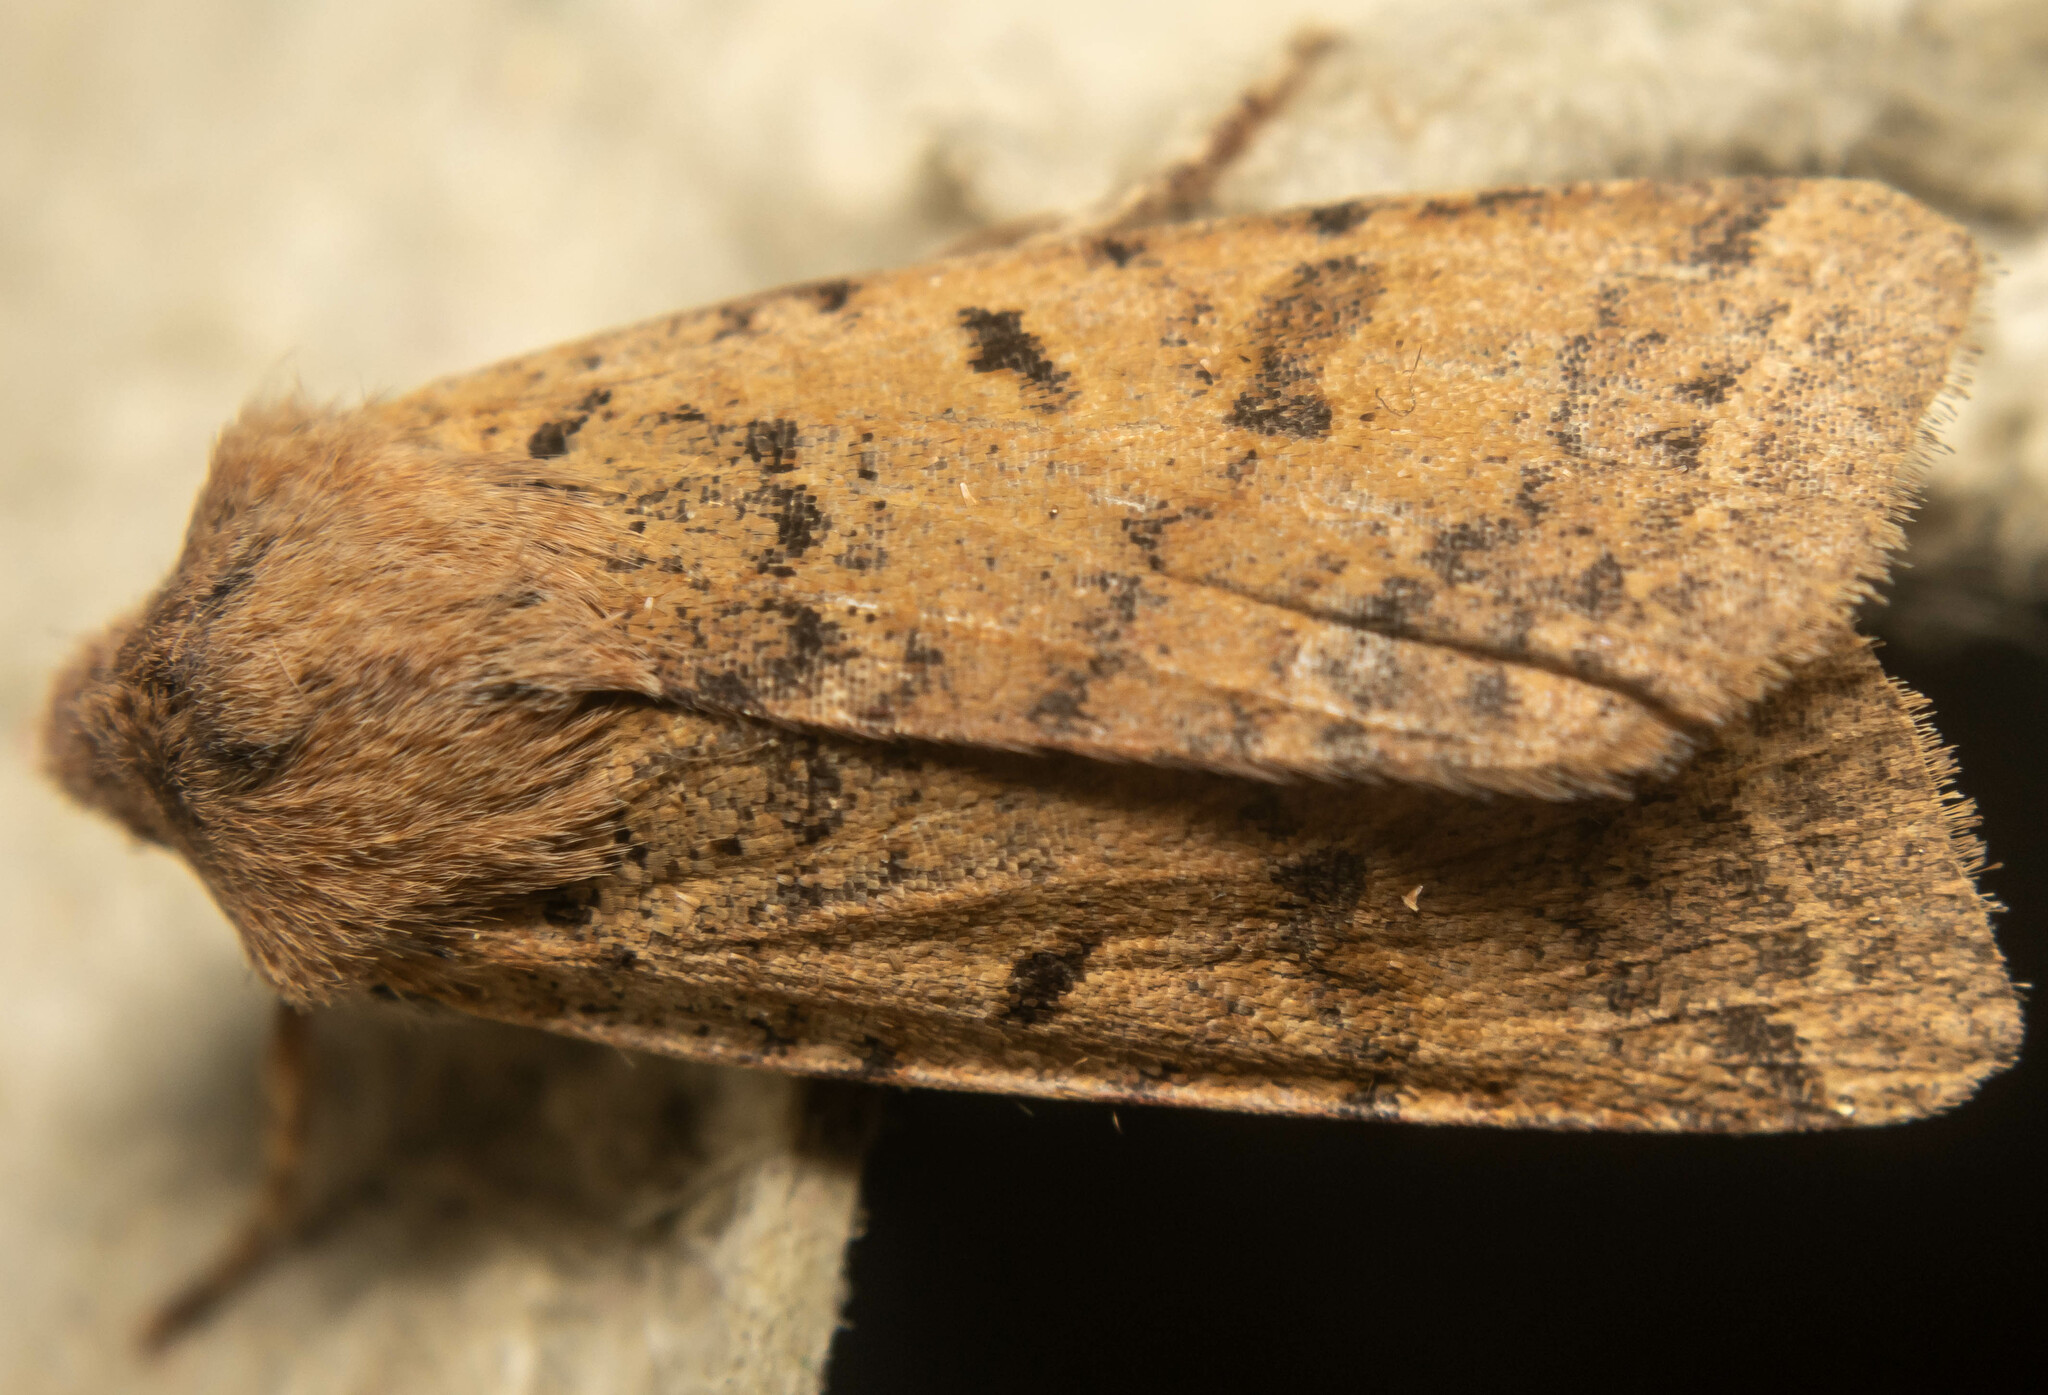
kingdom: Animalia
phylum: Arthropoda
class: Insecta
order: Lepidoptera
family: Noctuidae
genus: Agrochola
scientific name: Agrochola lychnidis
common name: Beaded chestnut
